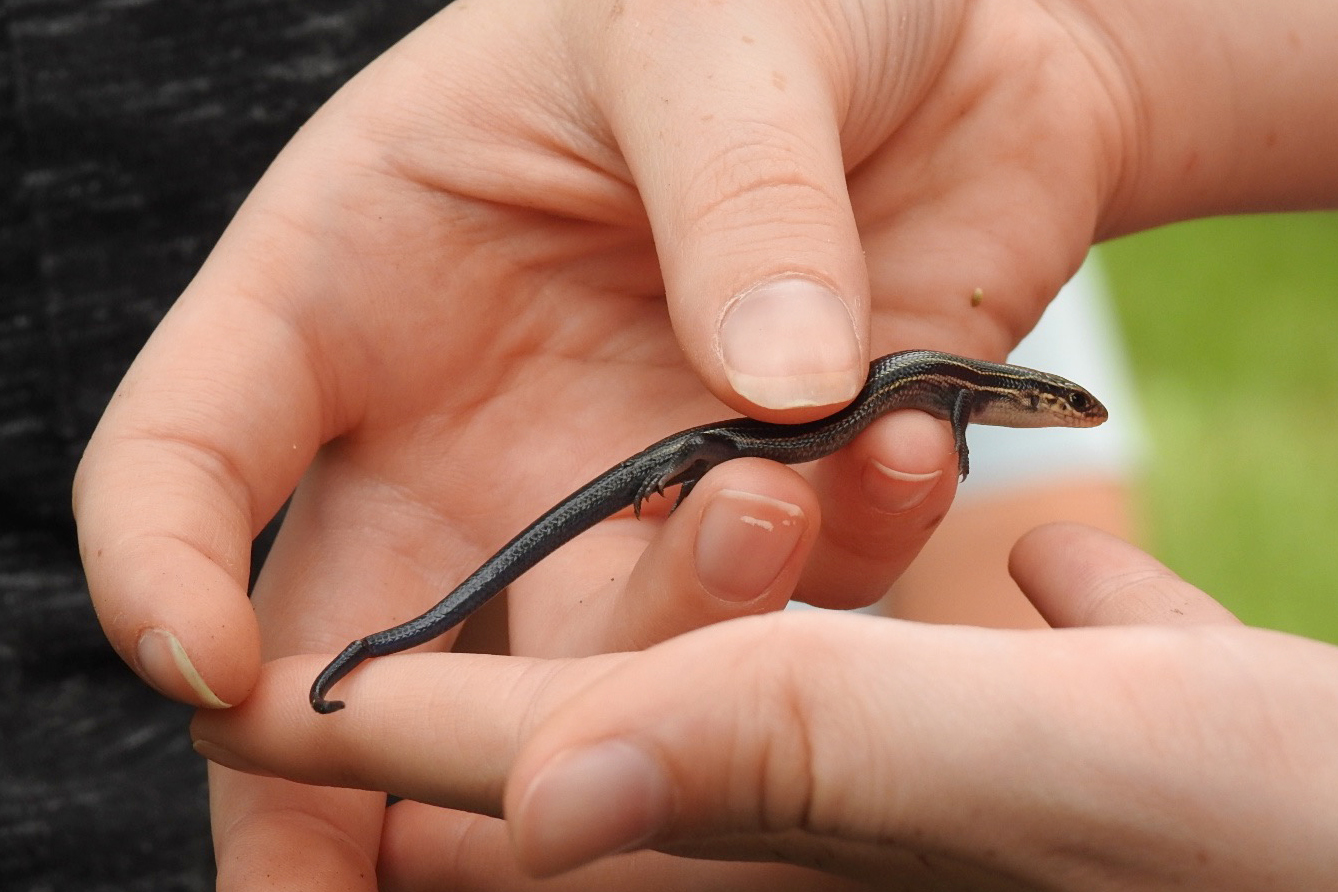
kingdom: Animalia
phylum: Chordata
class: Squamata
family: Scincidae
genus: Plestiodon
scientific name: Plestiodon septentrionalis
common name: Northern prairie skink
